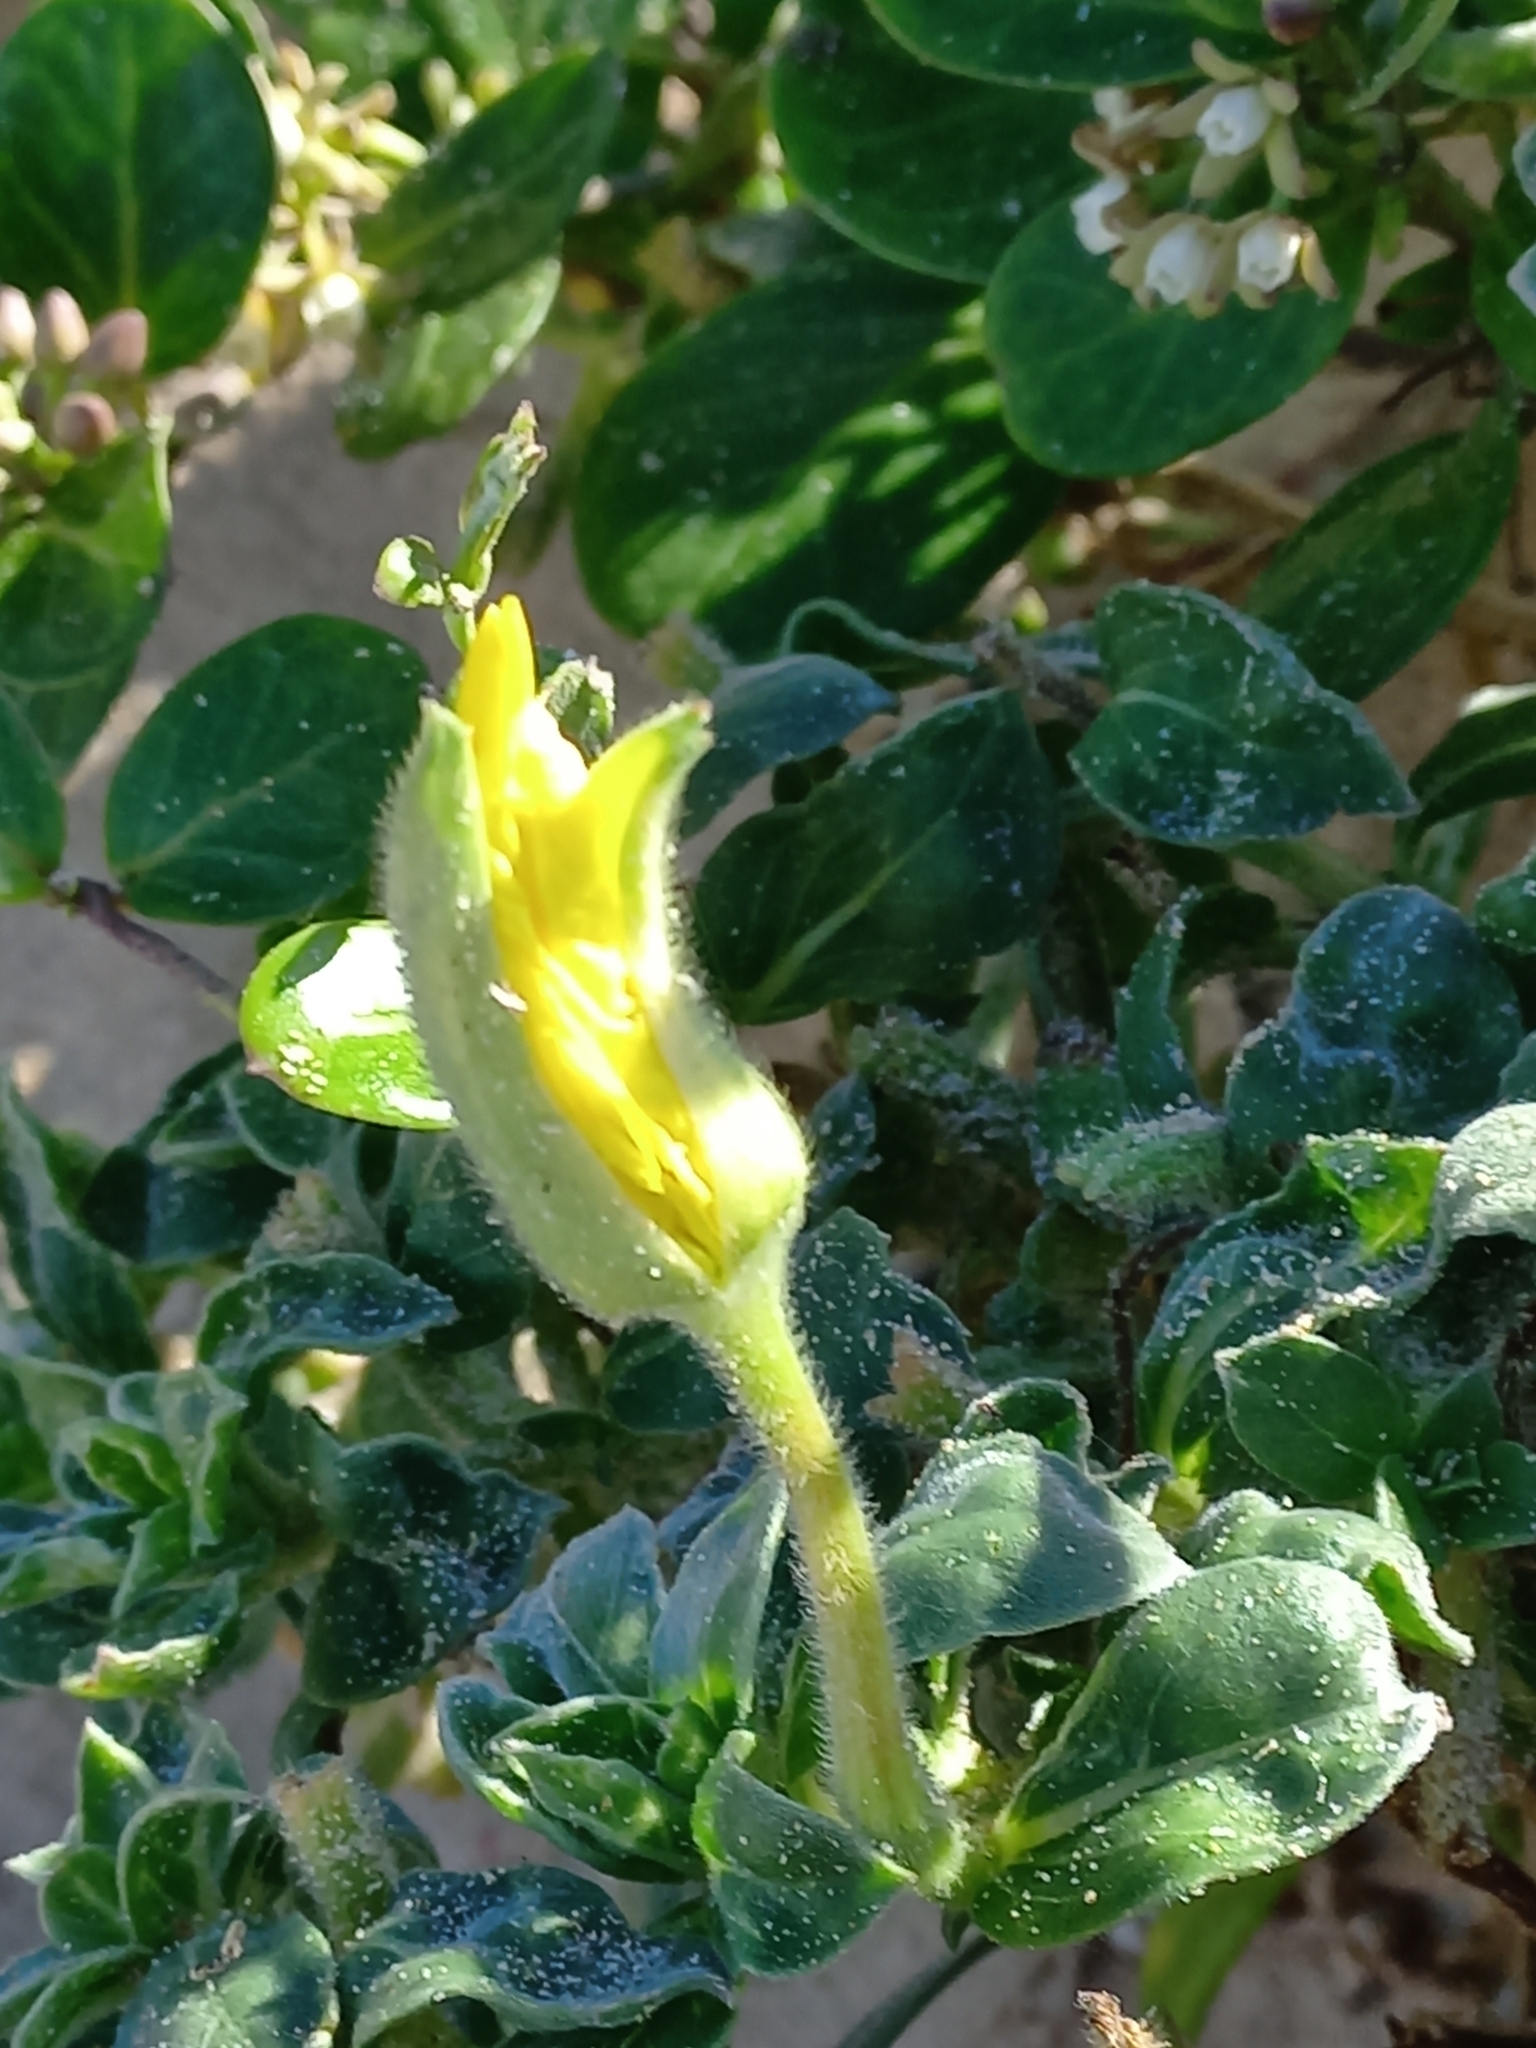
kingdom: Plantae
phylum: Tracheophyta
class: Magnoliopsida
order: Myrtales
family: Onagraceae
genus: Oenothera
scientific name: Oenothera drummondii
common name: Beach evening-primrose
